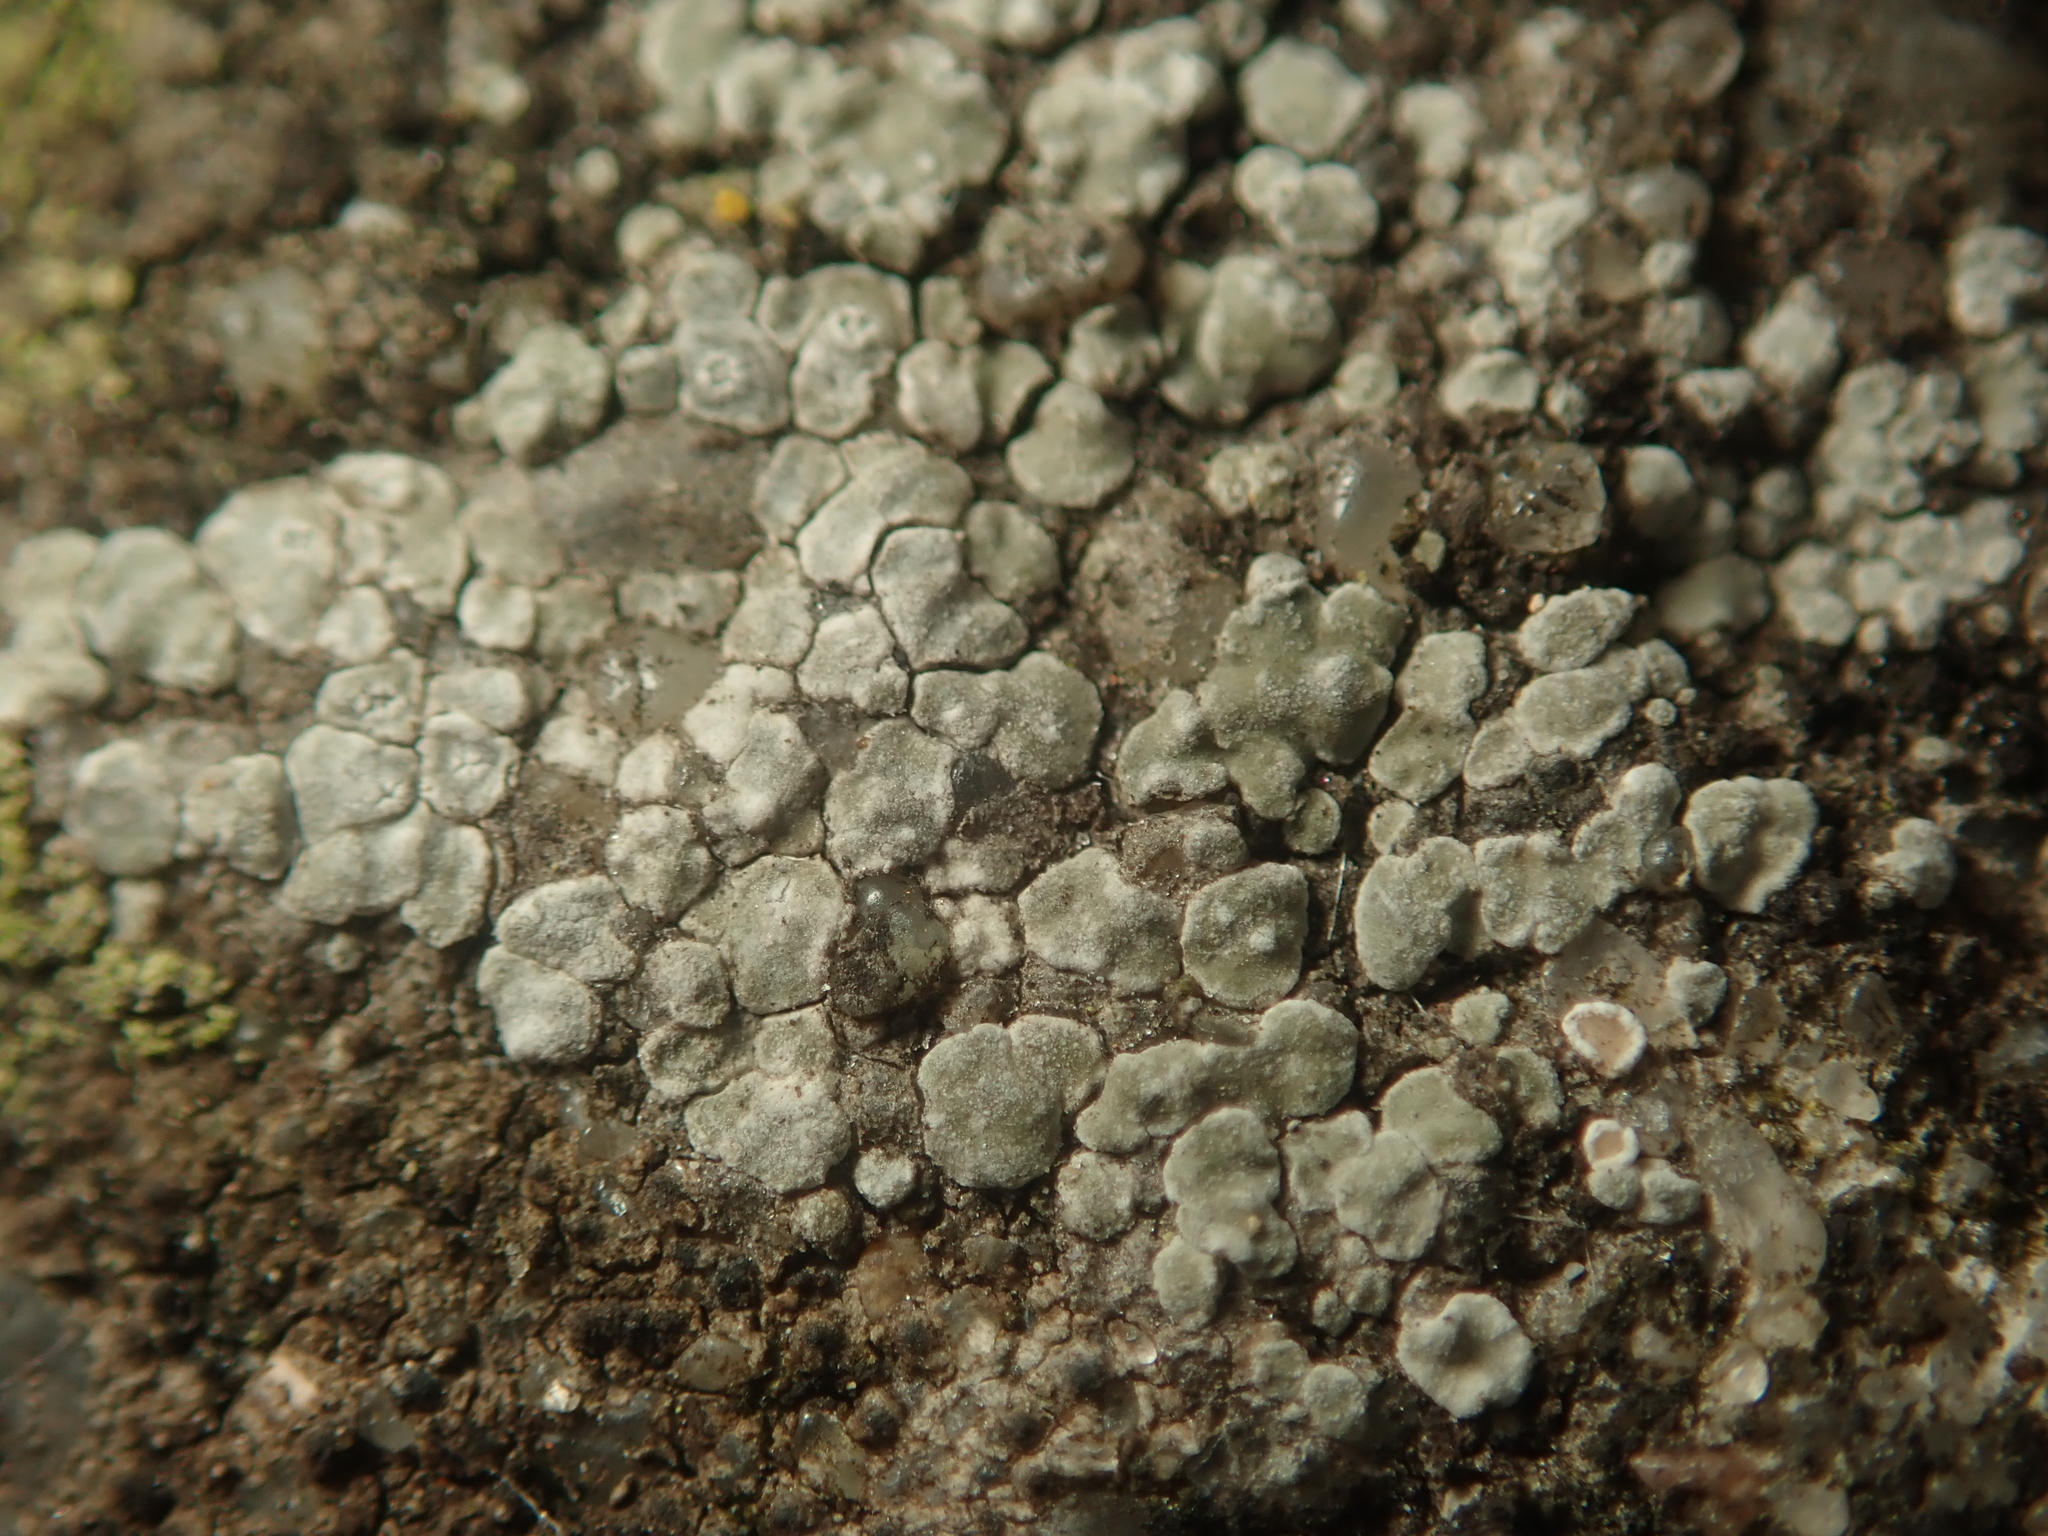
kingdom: Fungi
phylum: Ascomycota
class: Lecanoromycetes
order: Pertusariales
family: Megasporaceae
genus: Circinaria
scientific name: Circinaria contorta
